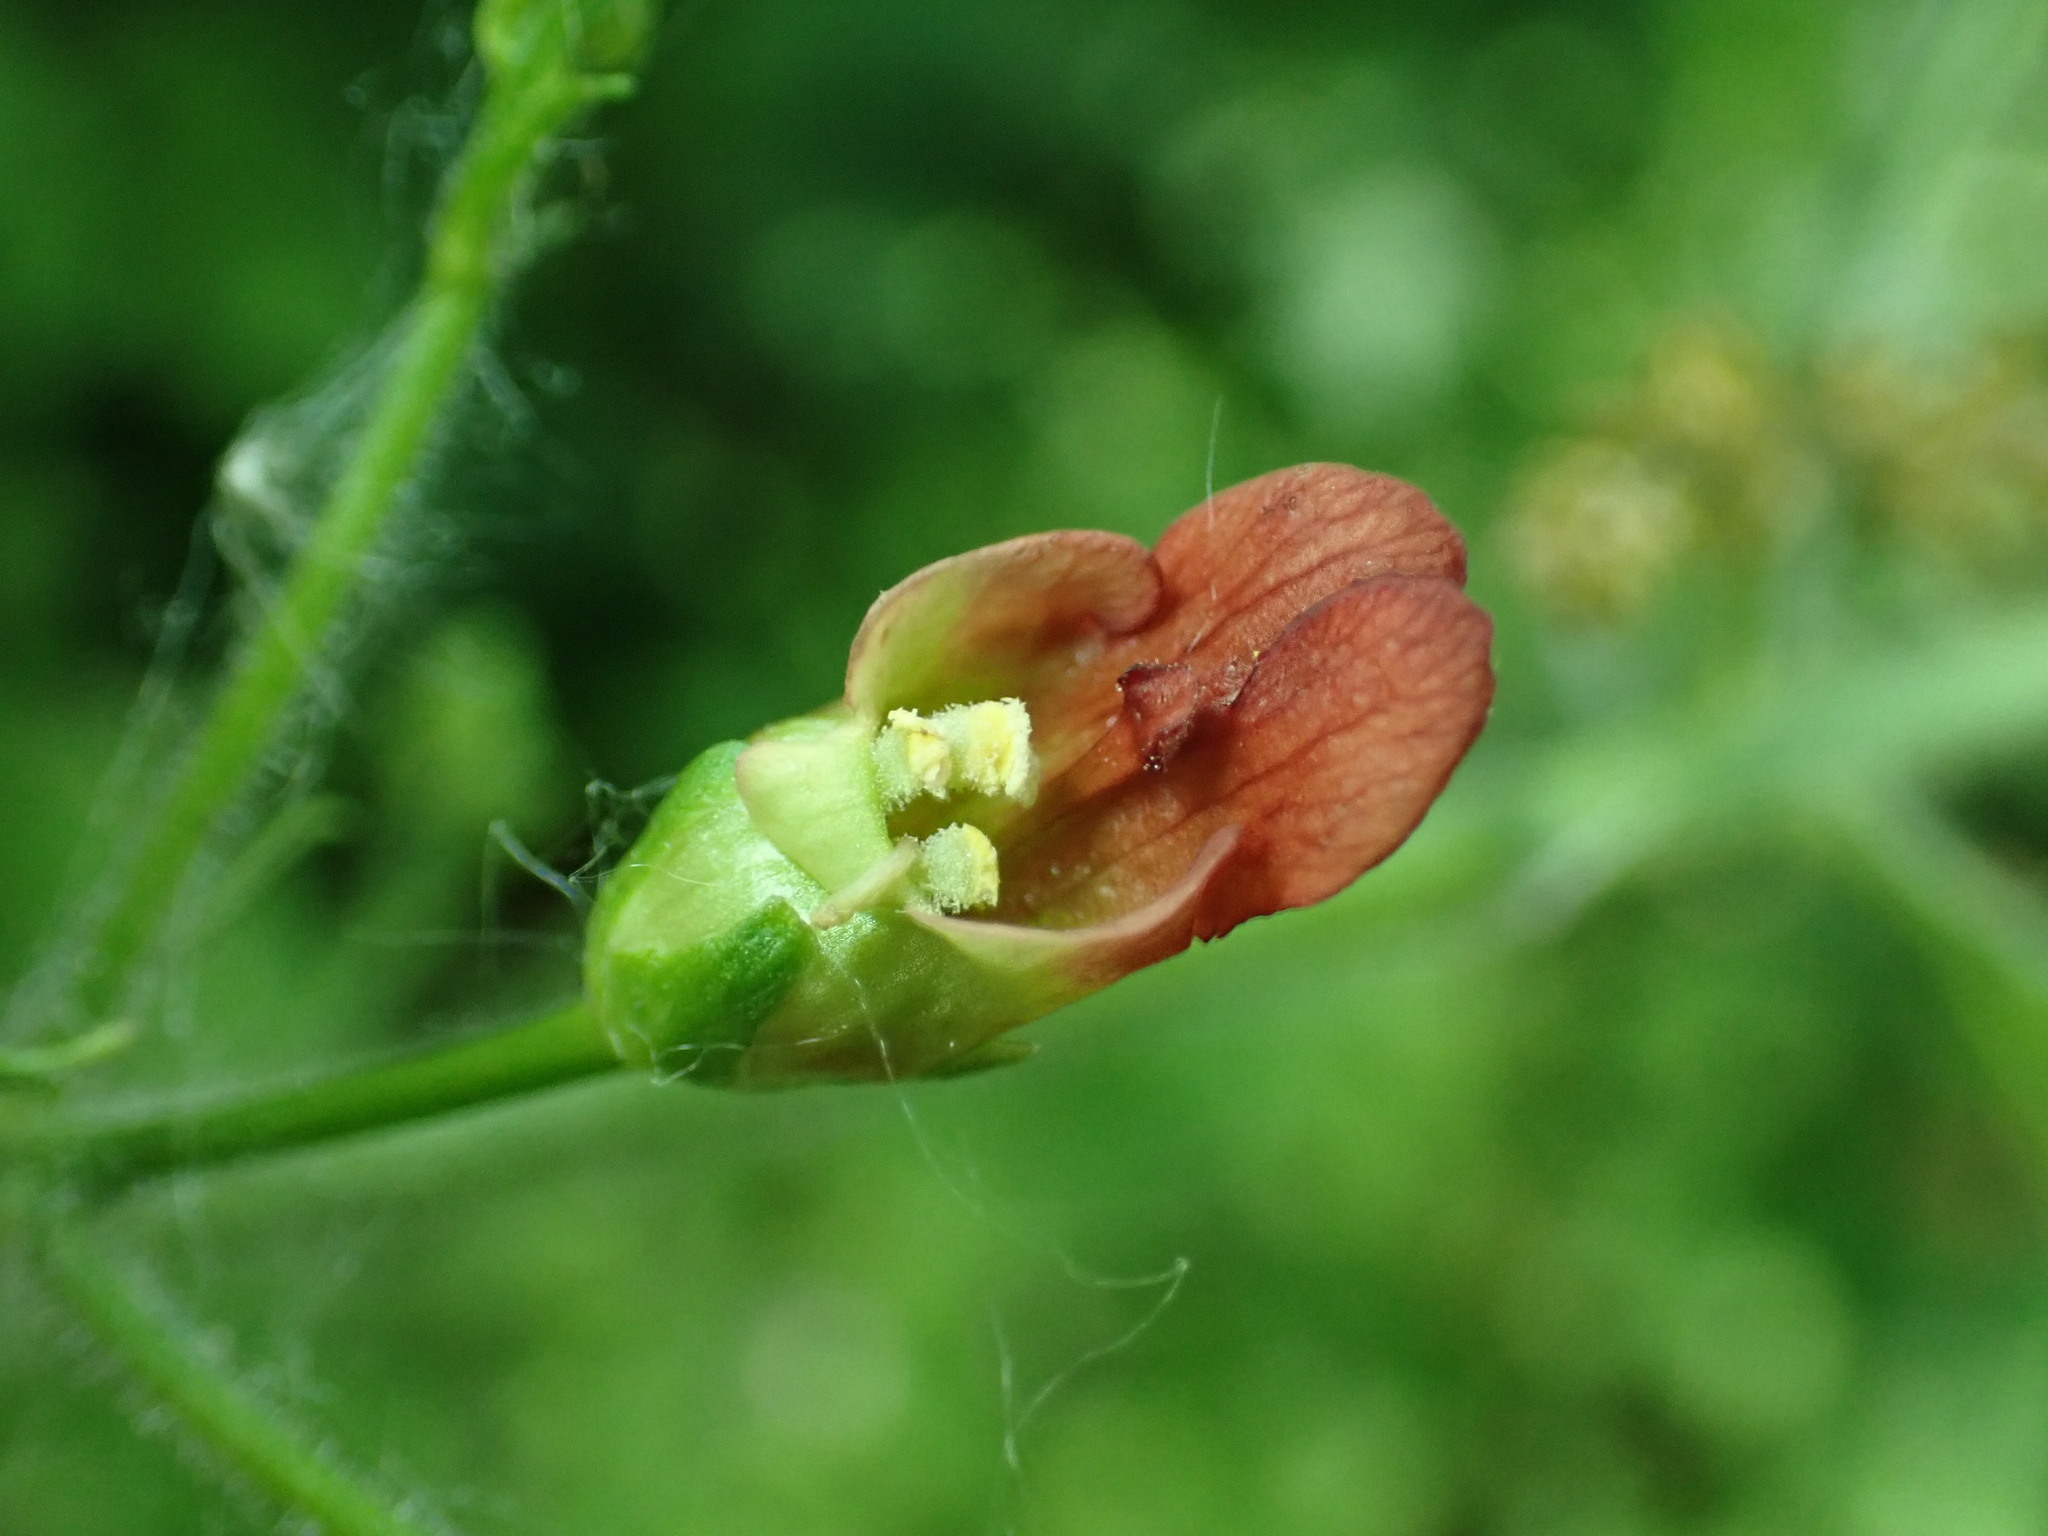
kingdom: Plantae
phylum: Tracheophyta
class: Magnoliopsida
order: Lamiales
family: Scrophulariaceae
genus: Scrophularia
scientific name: Scrophularia californica
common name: California figwort
